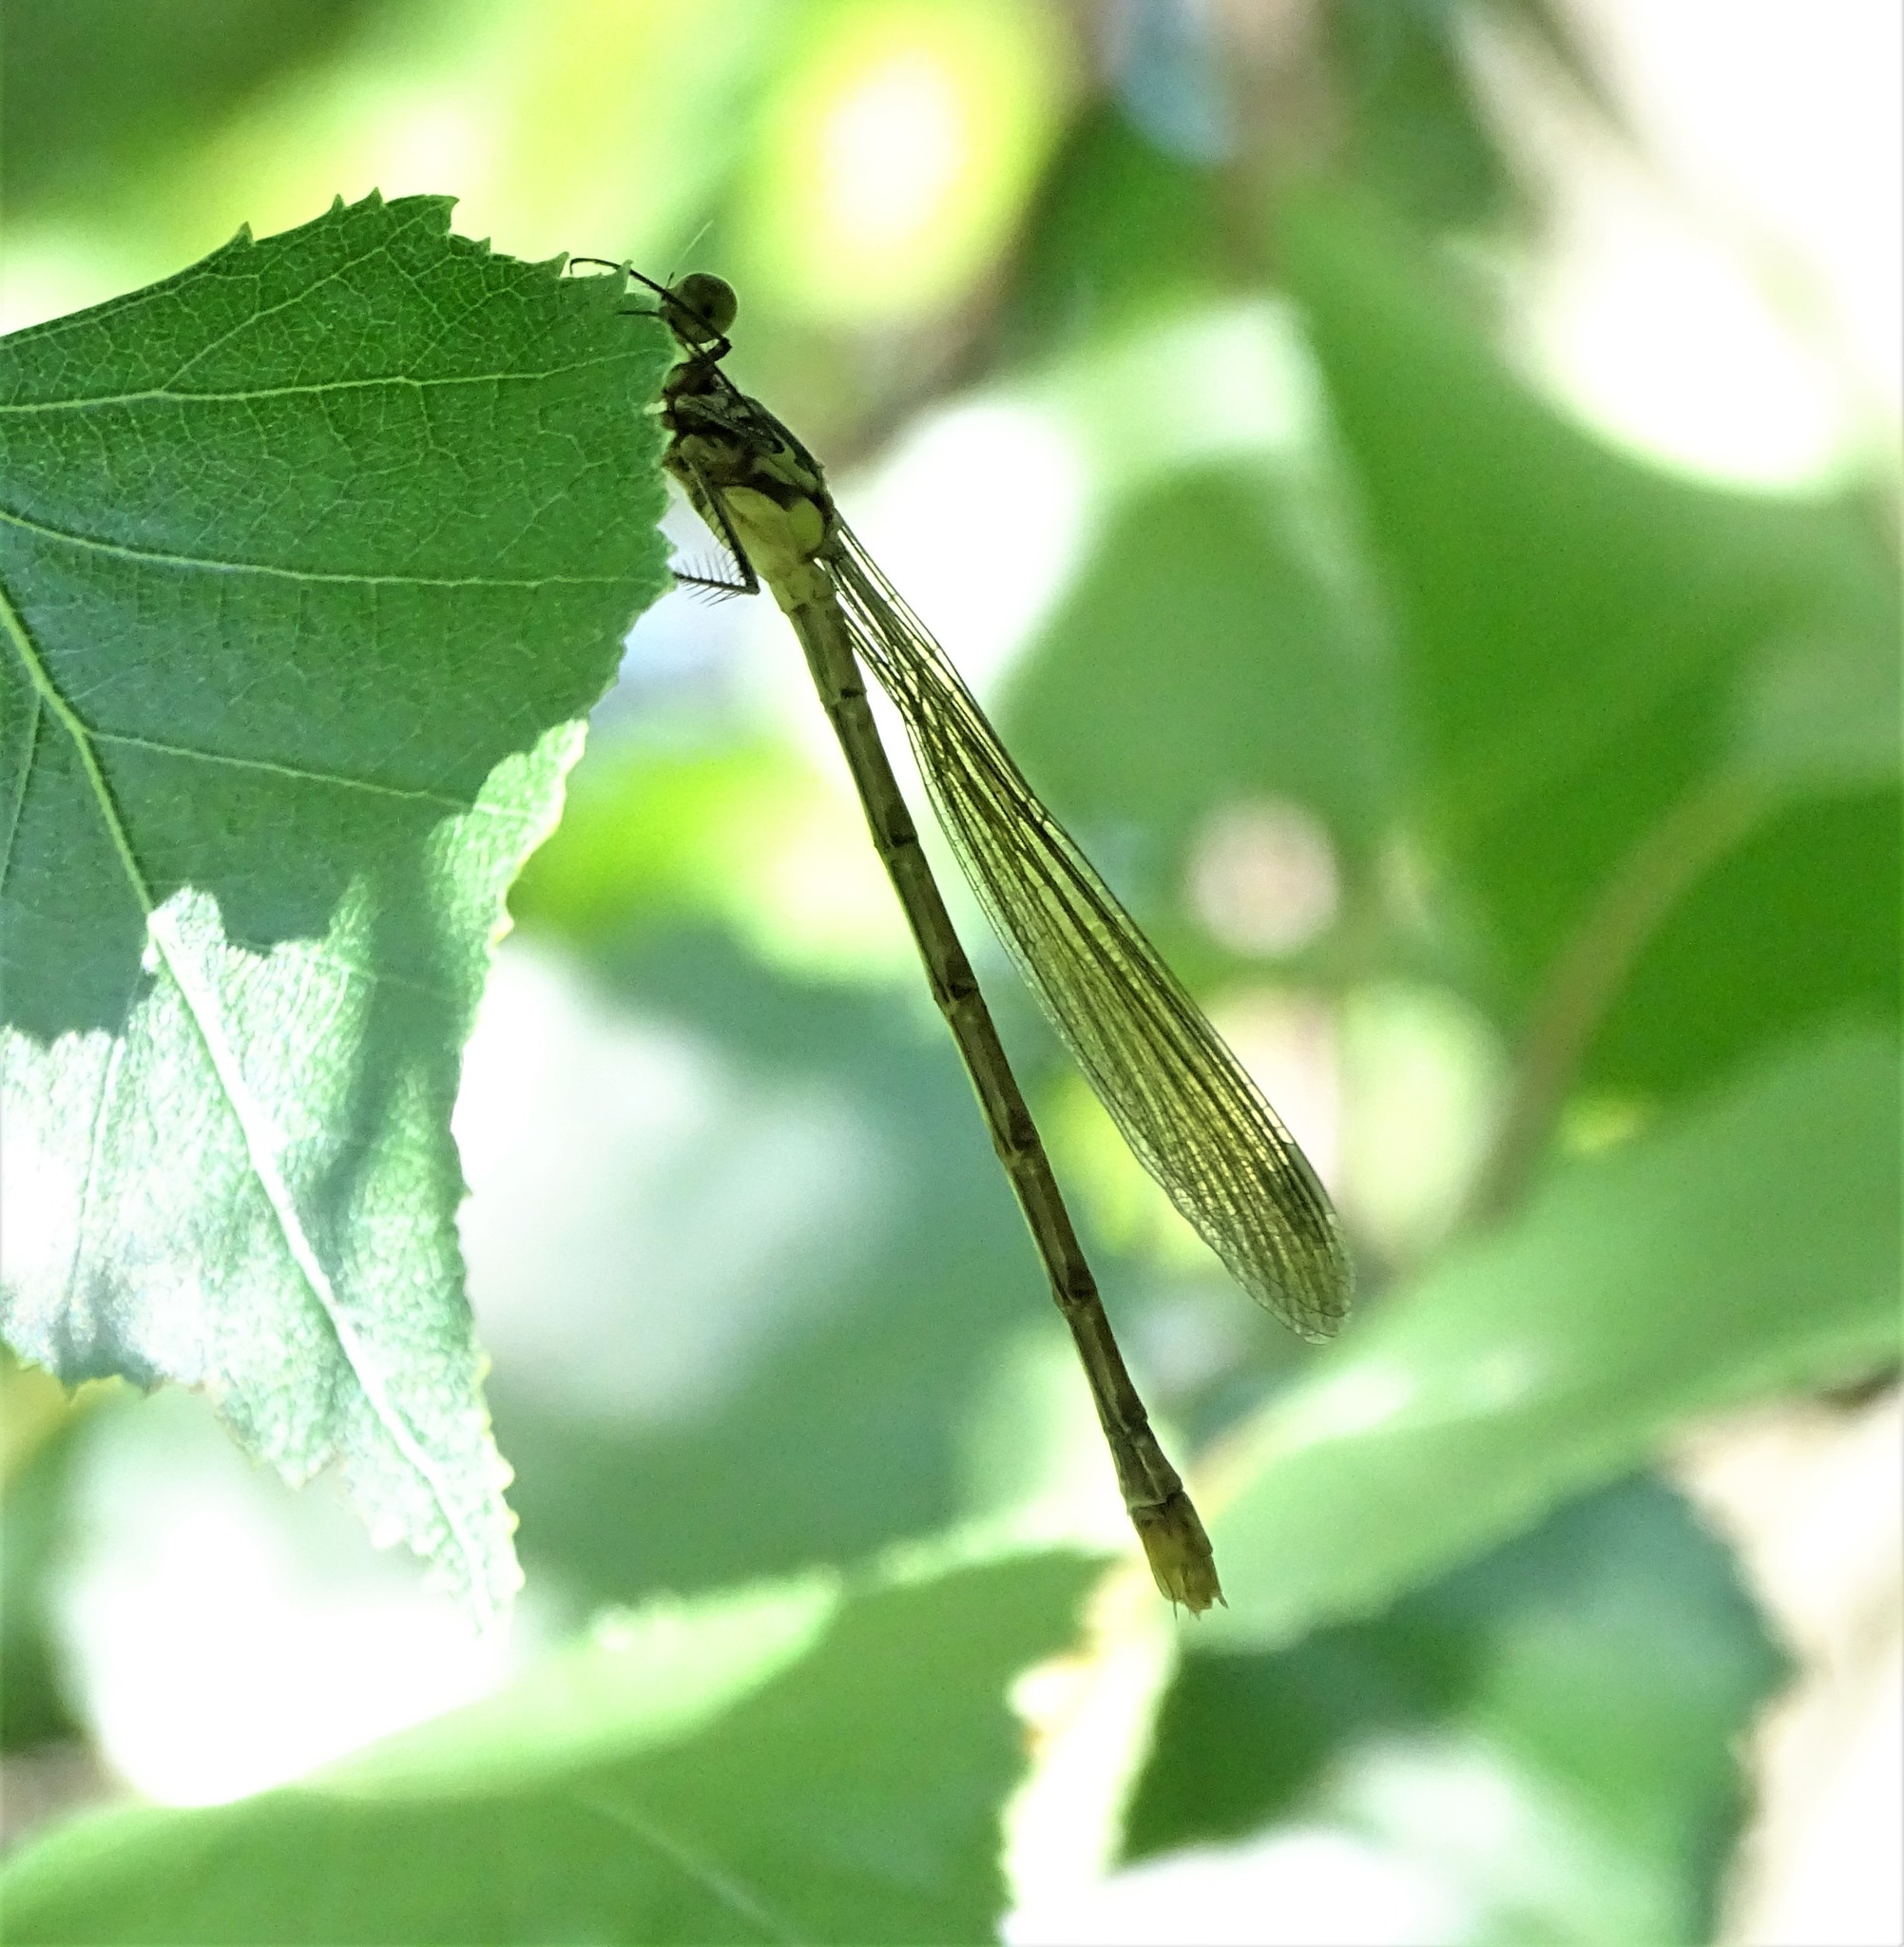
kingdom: Animalia
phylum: Arthropoda
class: Insecta
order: Odonata
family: Lestidae
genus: Lestes
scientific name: Lestes eurinus
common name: Amber-winged spreadwing
